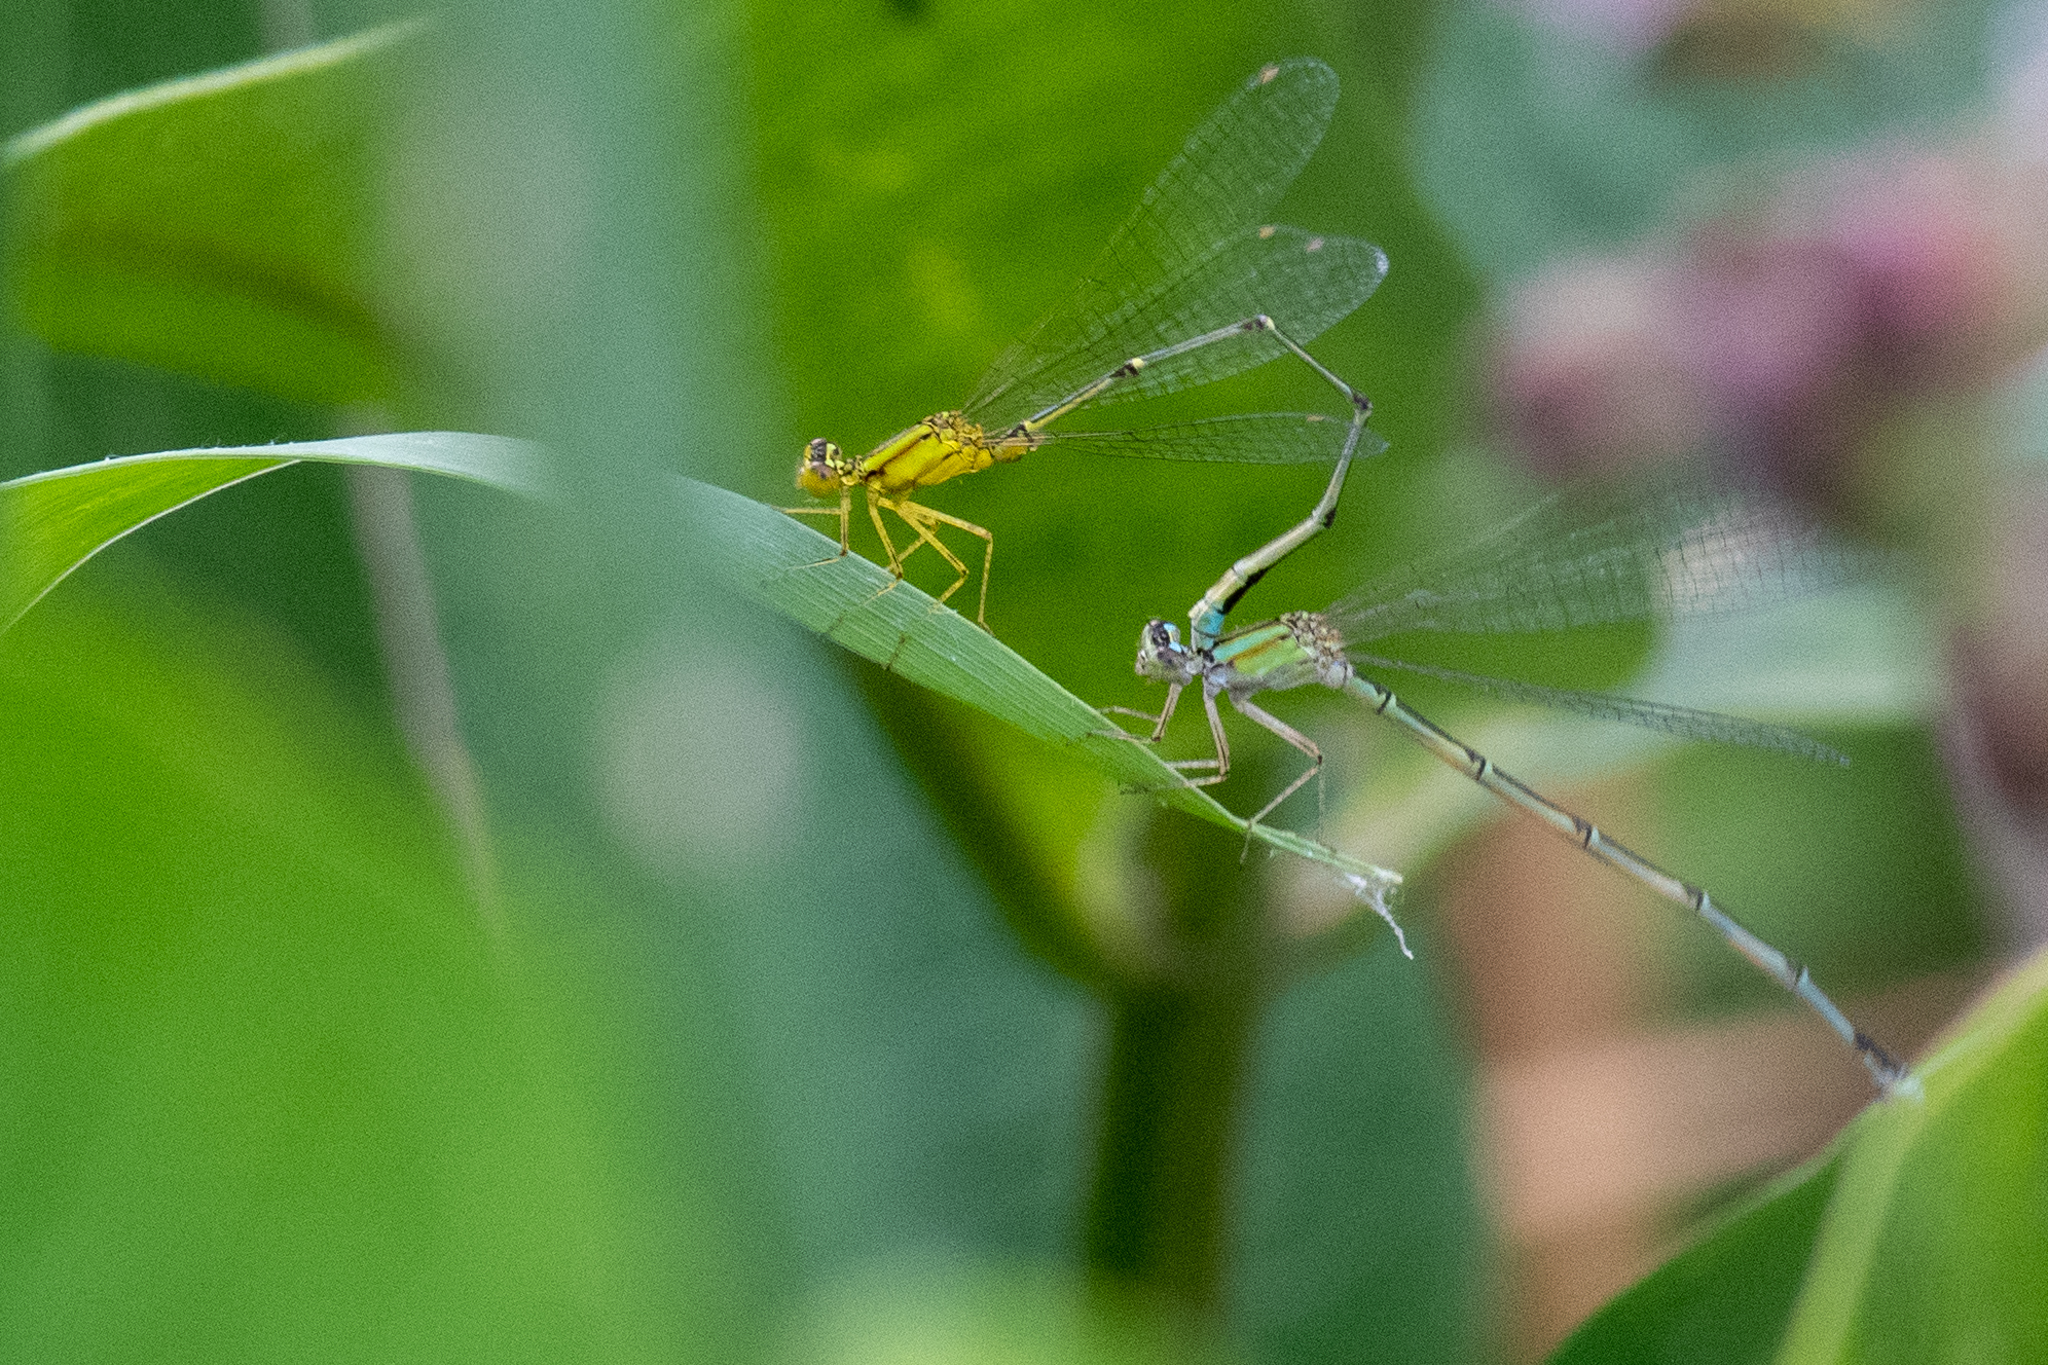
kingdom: Animalia
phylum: Arthropoda
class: Insecta
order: Odonata
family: Coenagrionidae
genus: Enallagma
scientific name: Enallagma vesperum
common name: Vesper bluet
